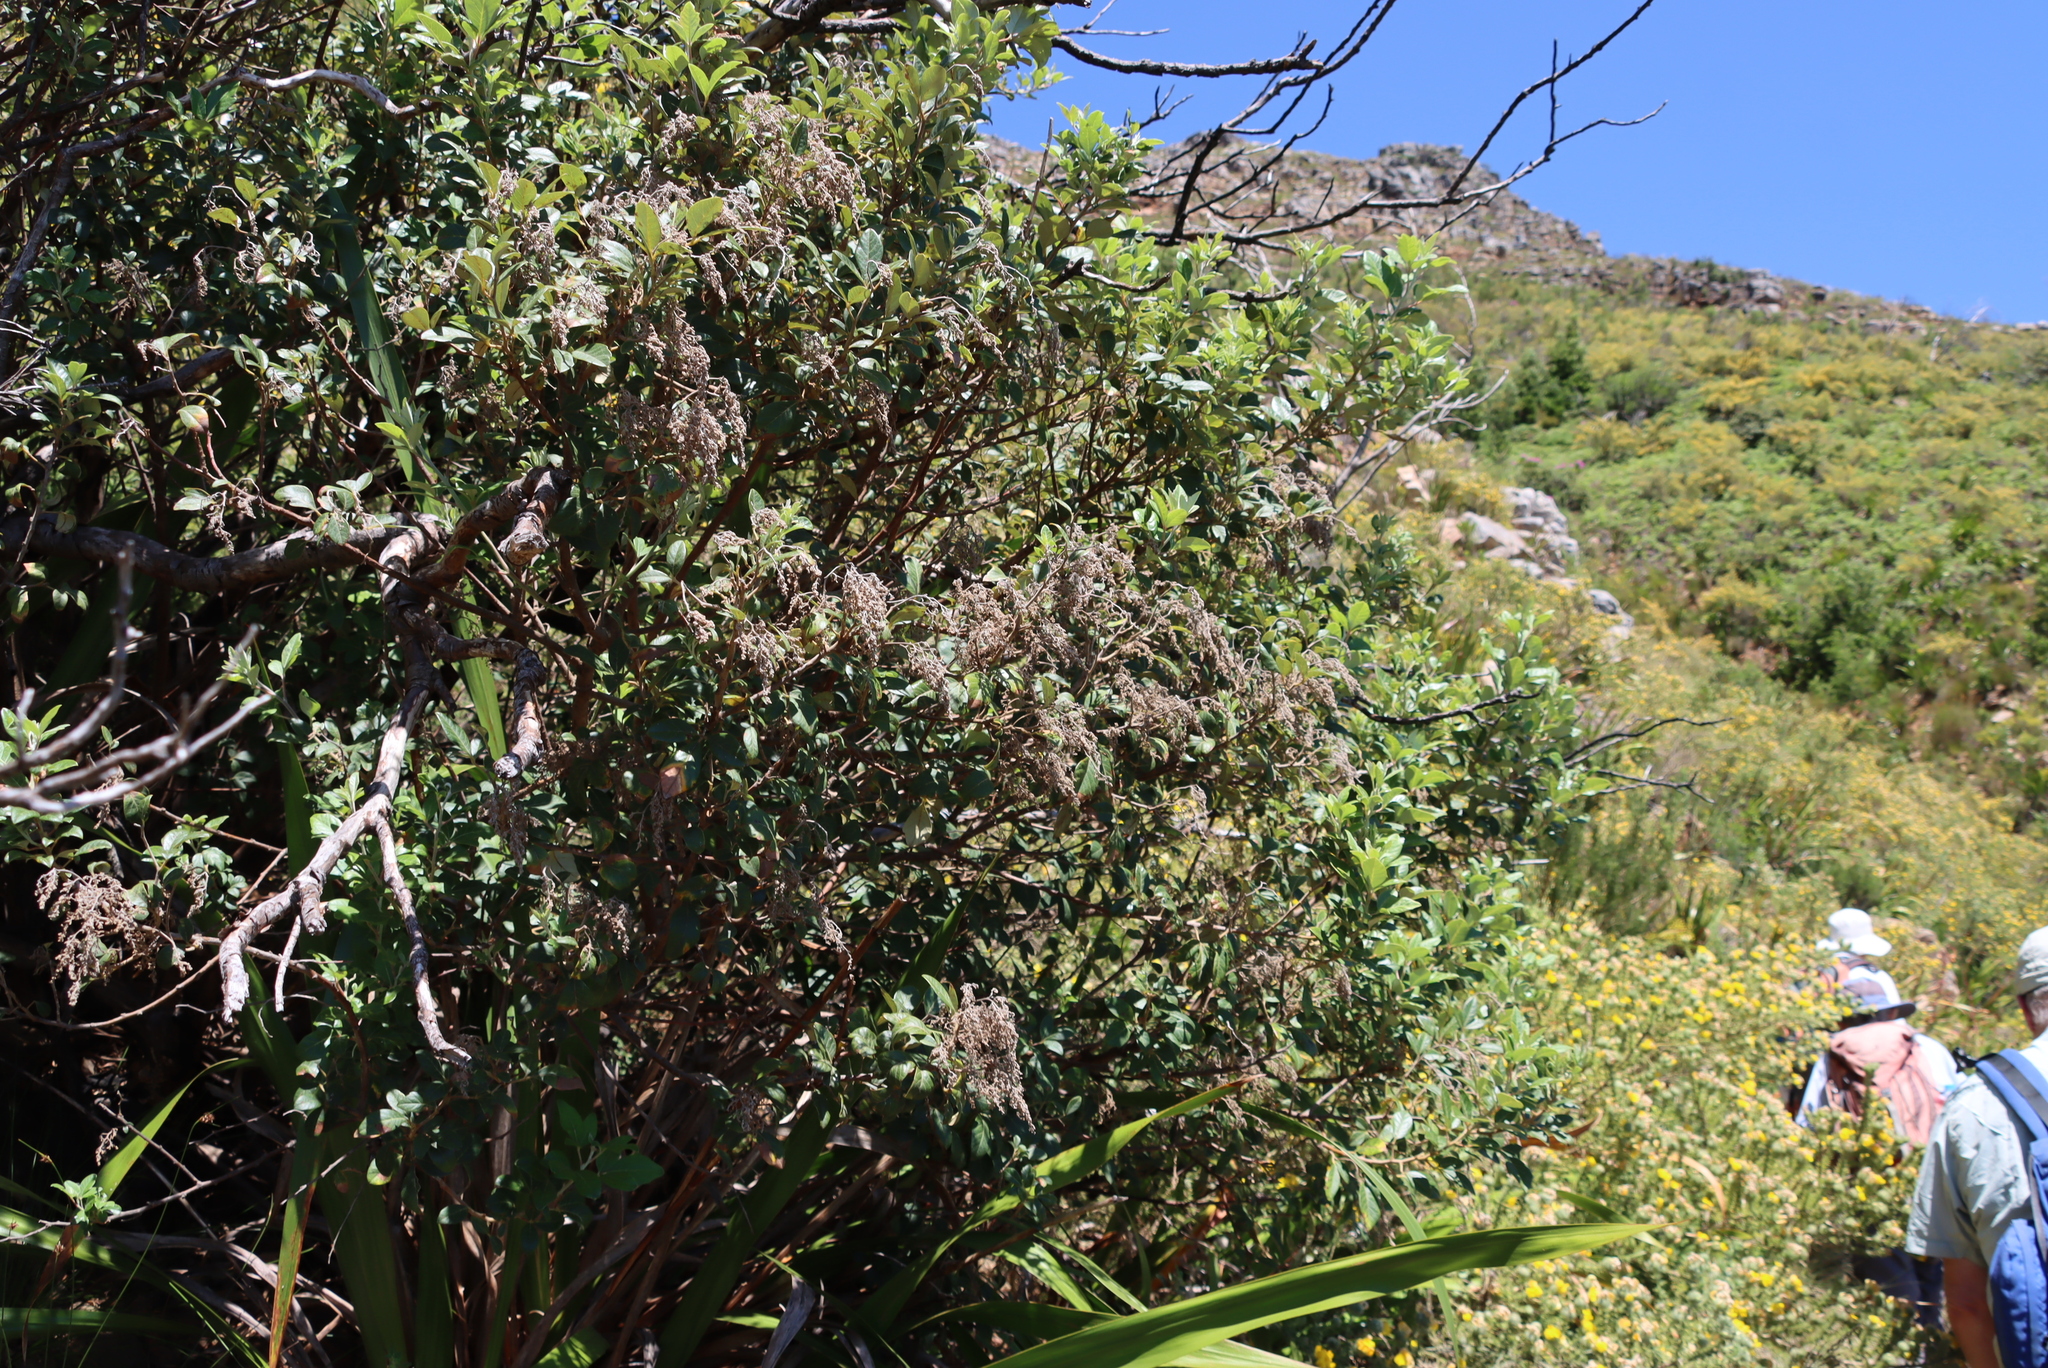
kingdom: Plantae
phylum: Tracheophyta
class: Magnoliopsida
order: Sapindales
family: Anacardiaceae
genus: Searsia
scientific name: Searsia tomentosa
